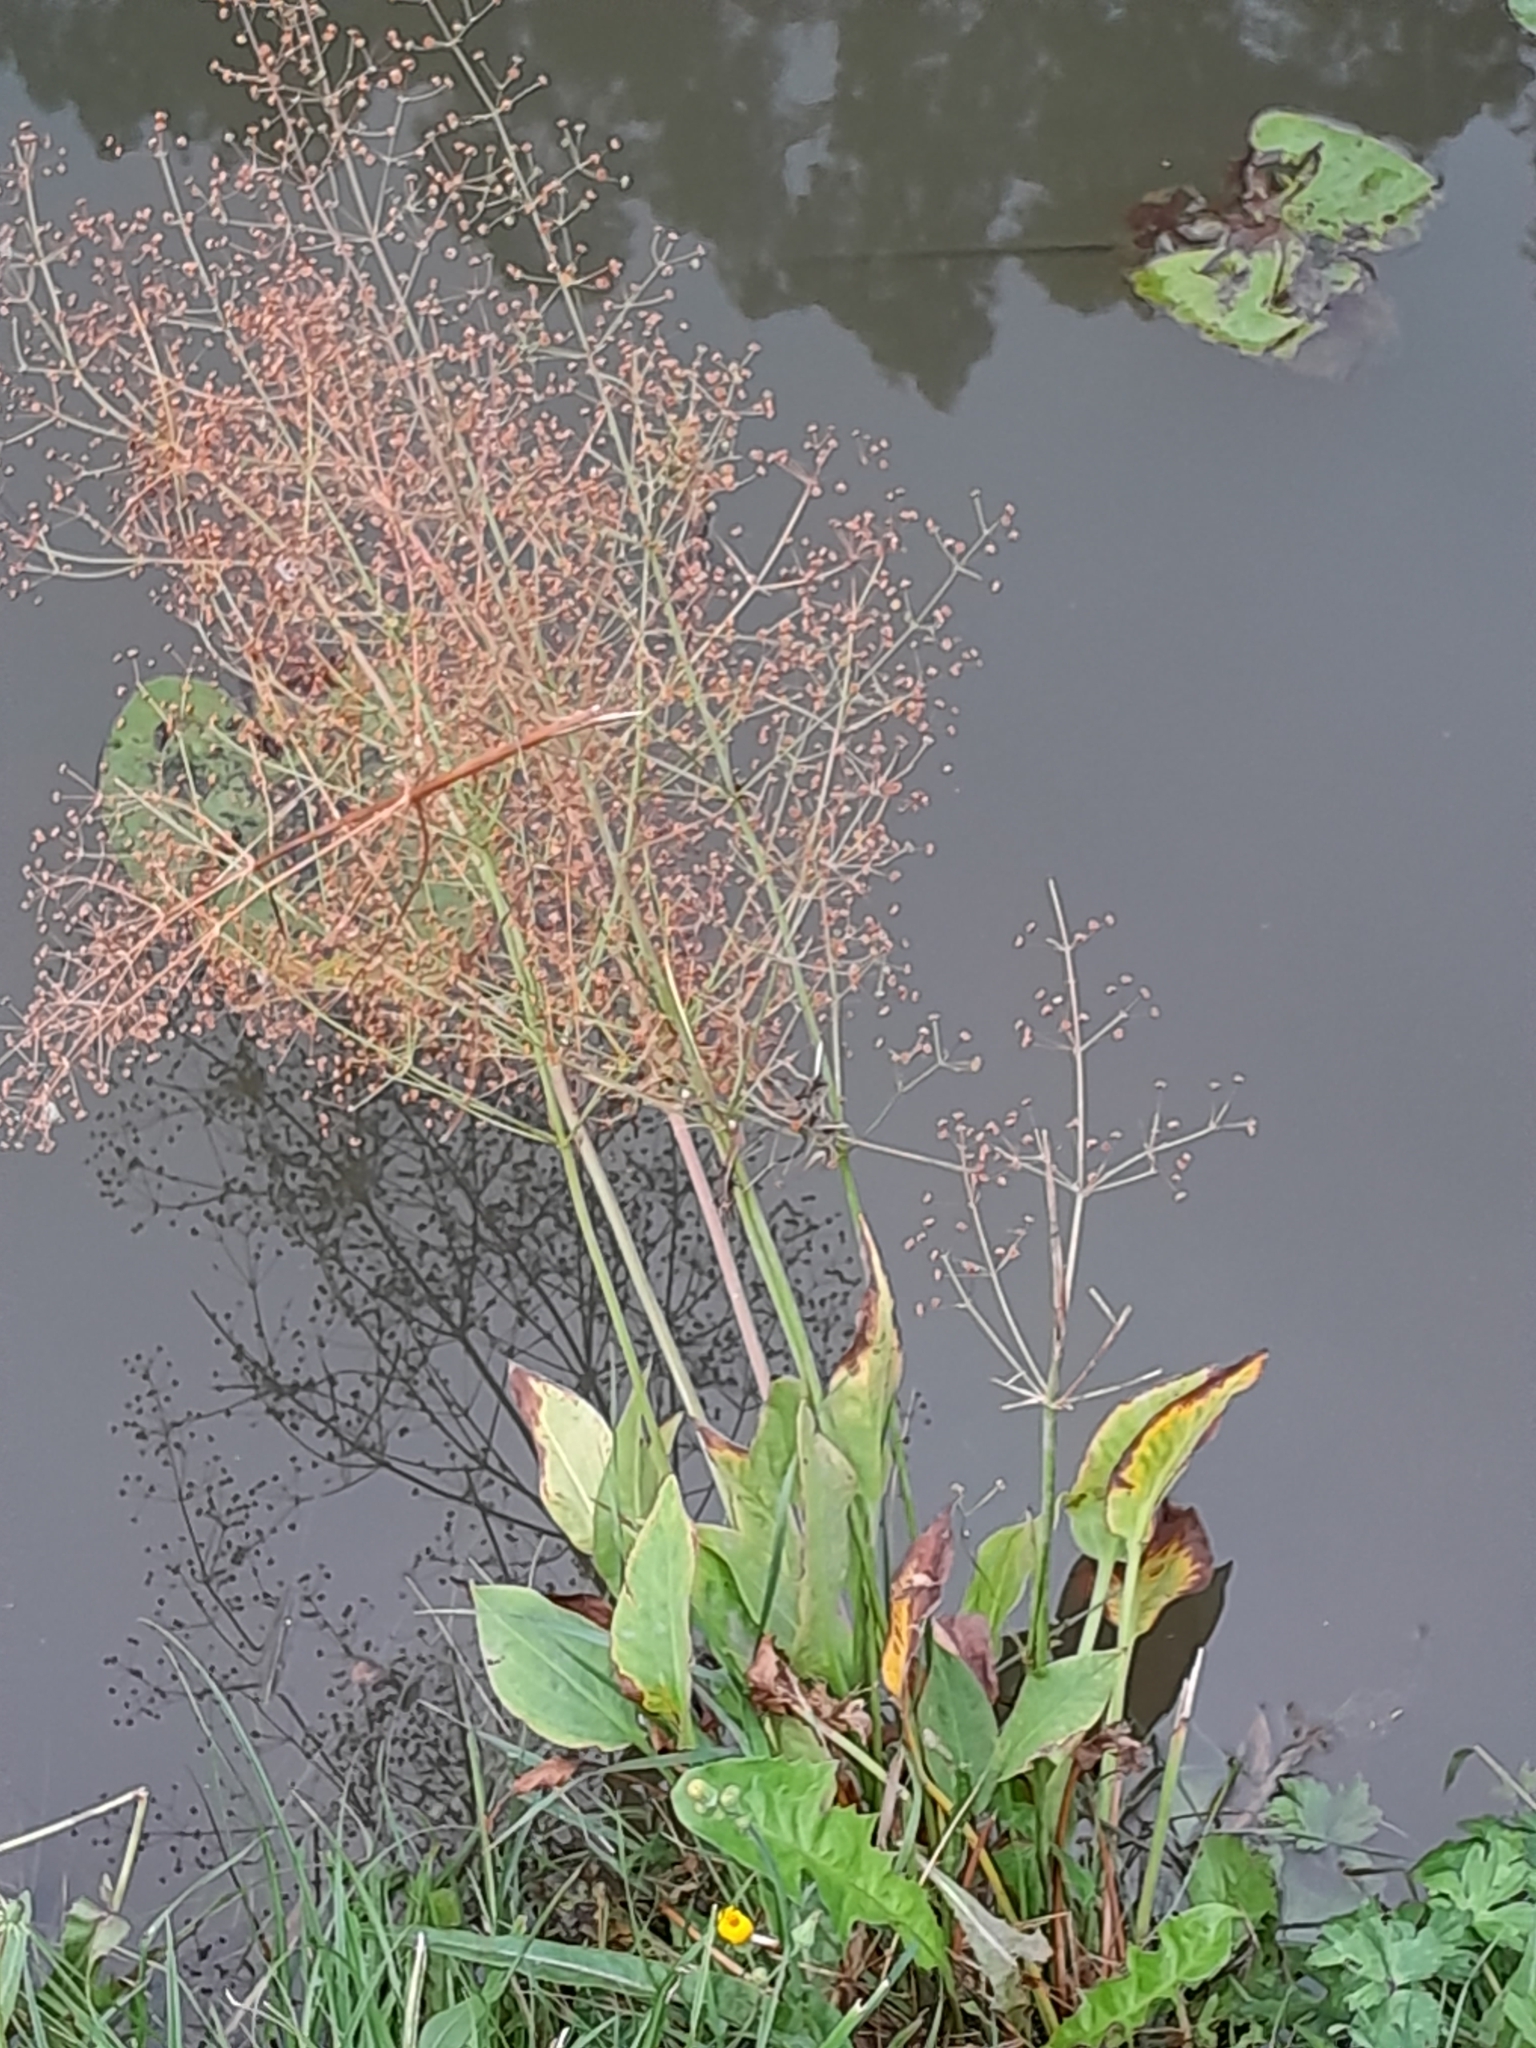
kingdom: Plantae
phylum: Tracheophyta
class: Liliopsida
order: Alismatales
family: Alismataceae
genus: Alisma
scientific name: Alisma plantago-aquatica
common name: Water-plantain
